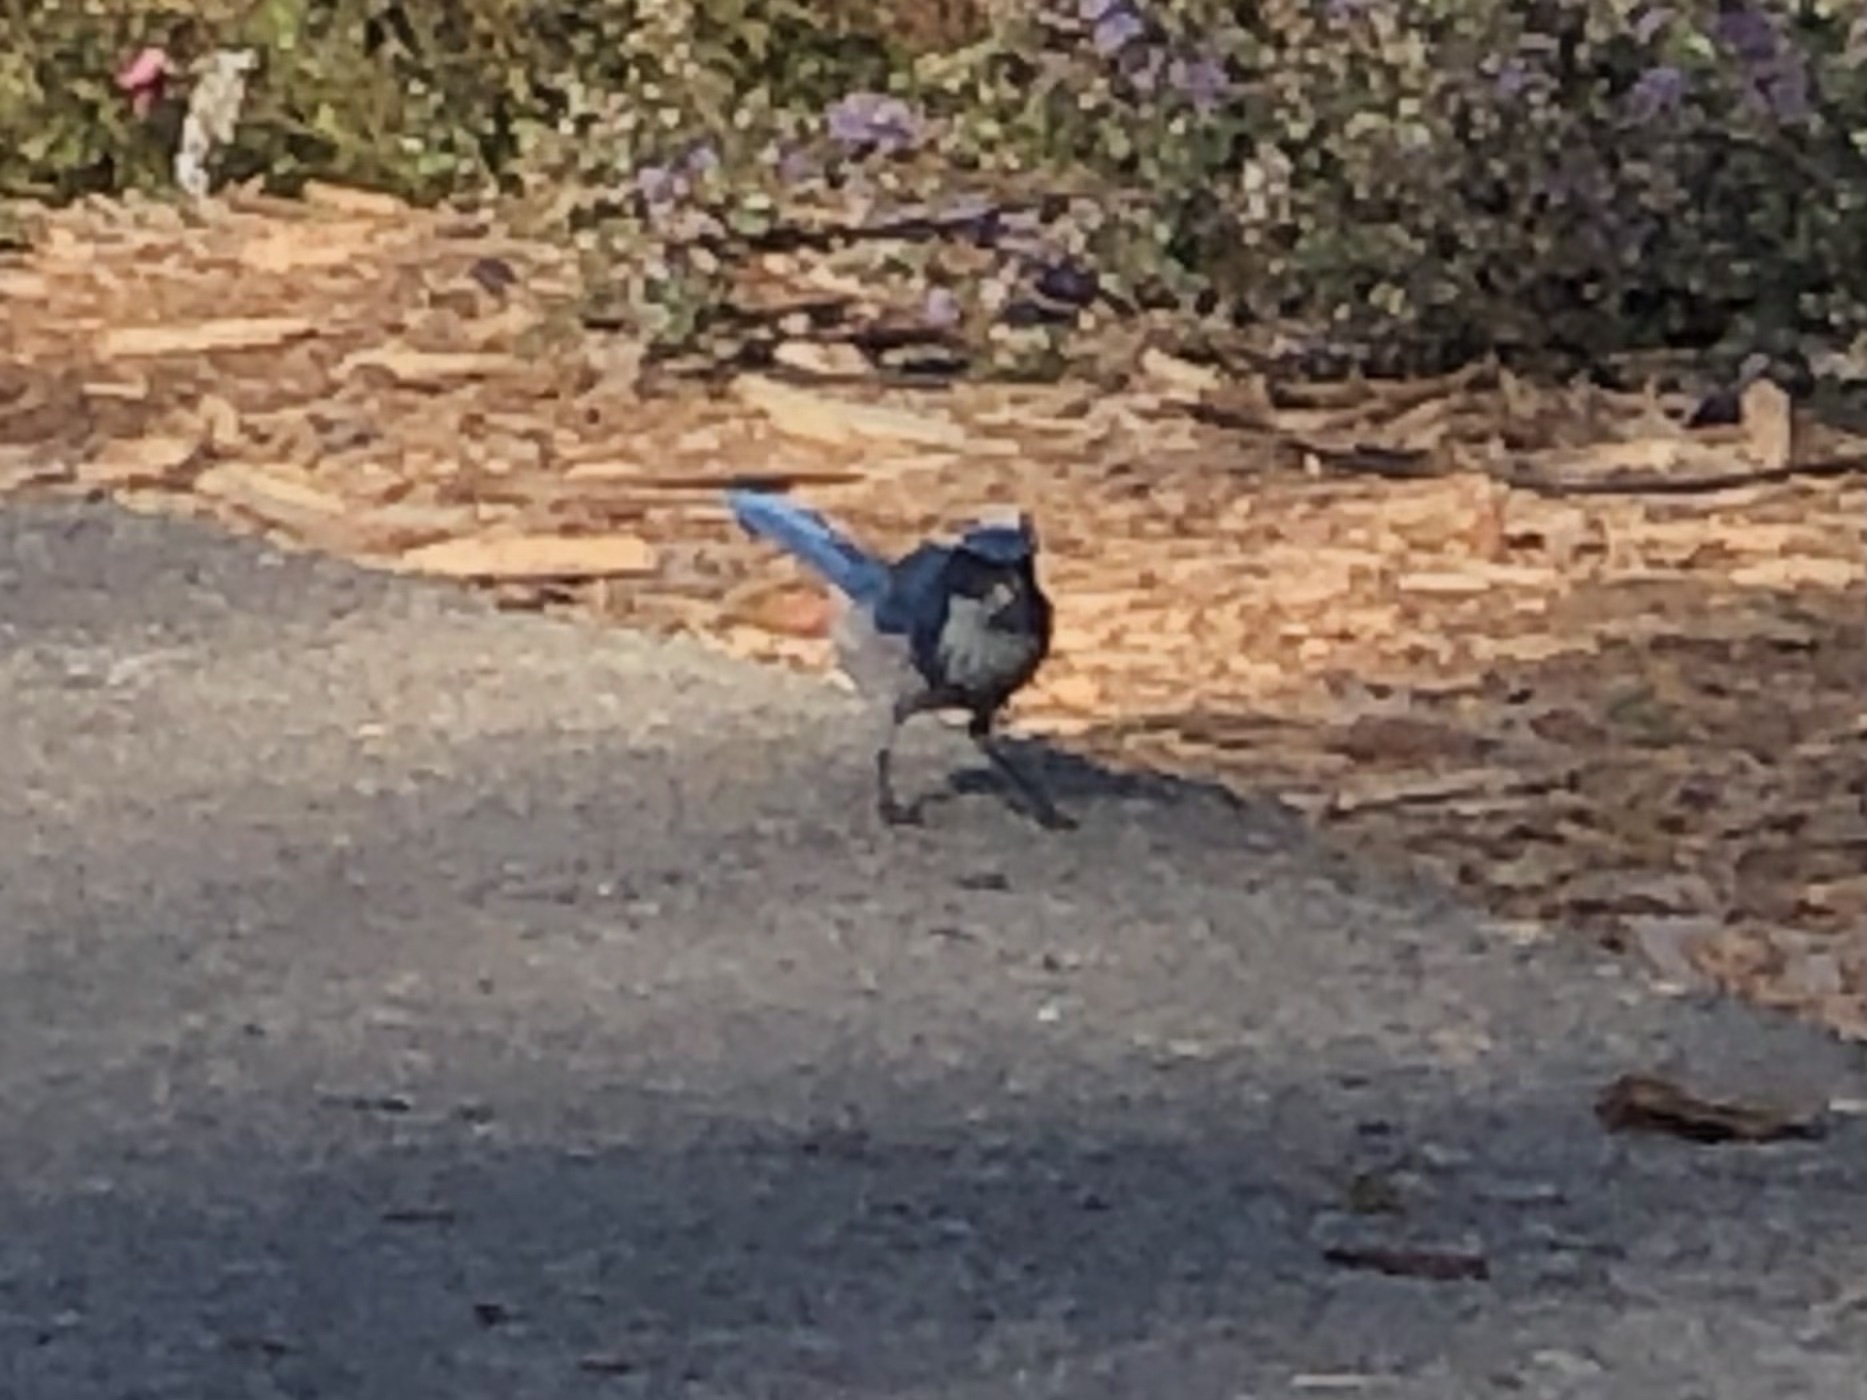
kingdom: Animalia
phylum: Chordata
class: Aves
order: Passeriformes
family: Corvidae
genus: Aphelocoma
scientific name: Aphelocoma californica
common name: California scrub-jay
